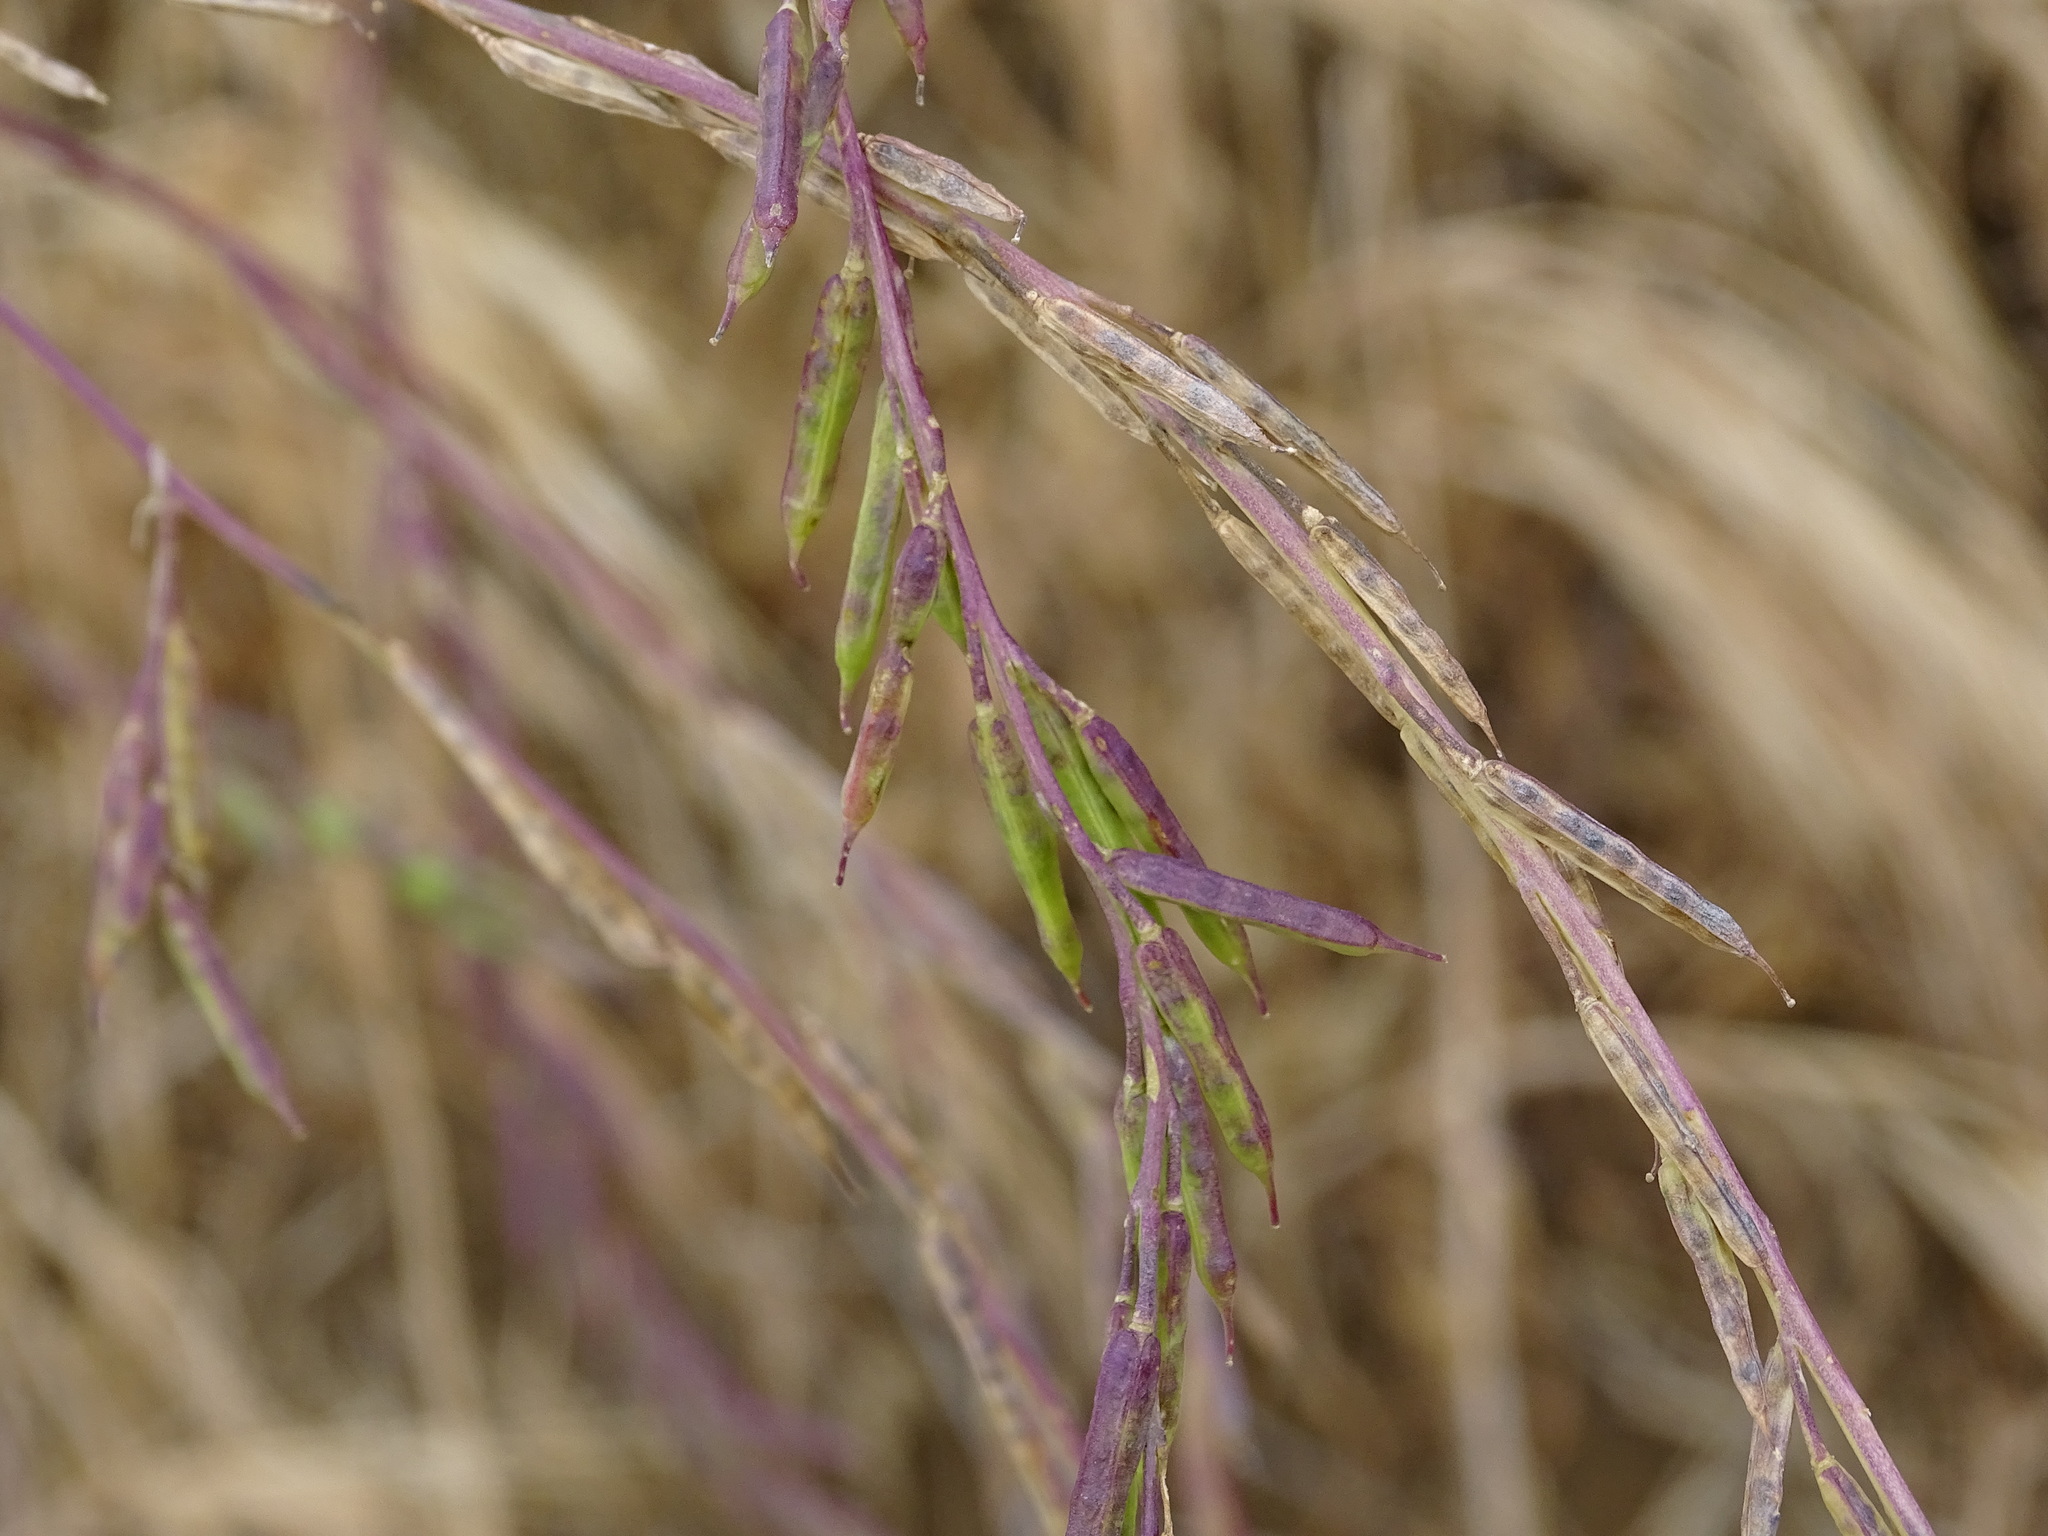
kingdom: Plantae
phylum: Tracheophyta
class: Magnoliopsida
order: Brassicales
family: Brassicaceae
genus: Brassica
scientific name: Brassica nigra
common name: Black mustard
